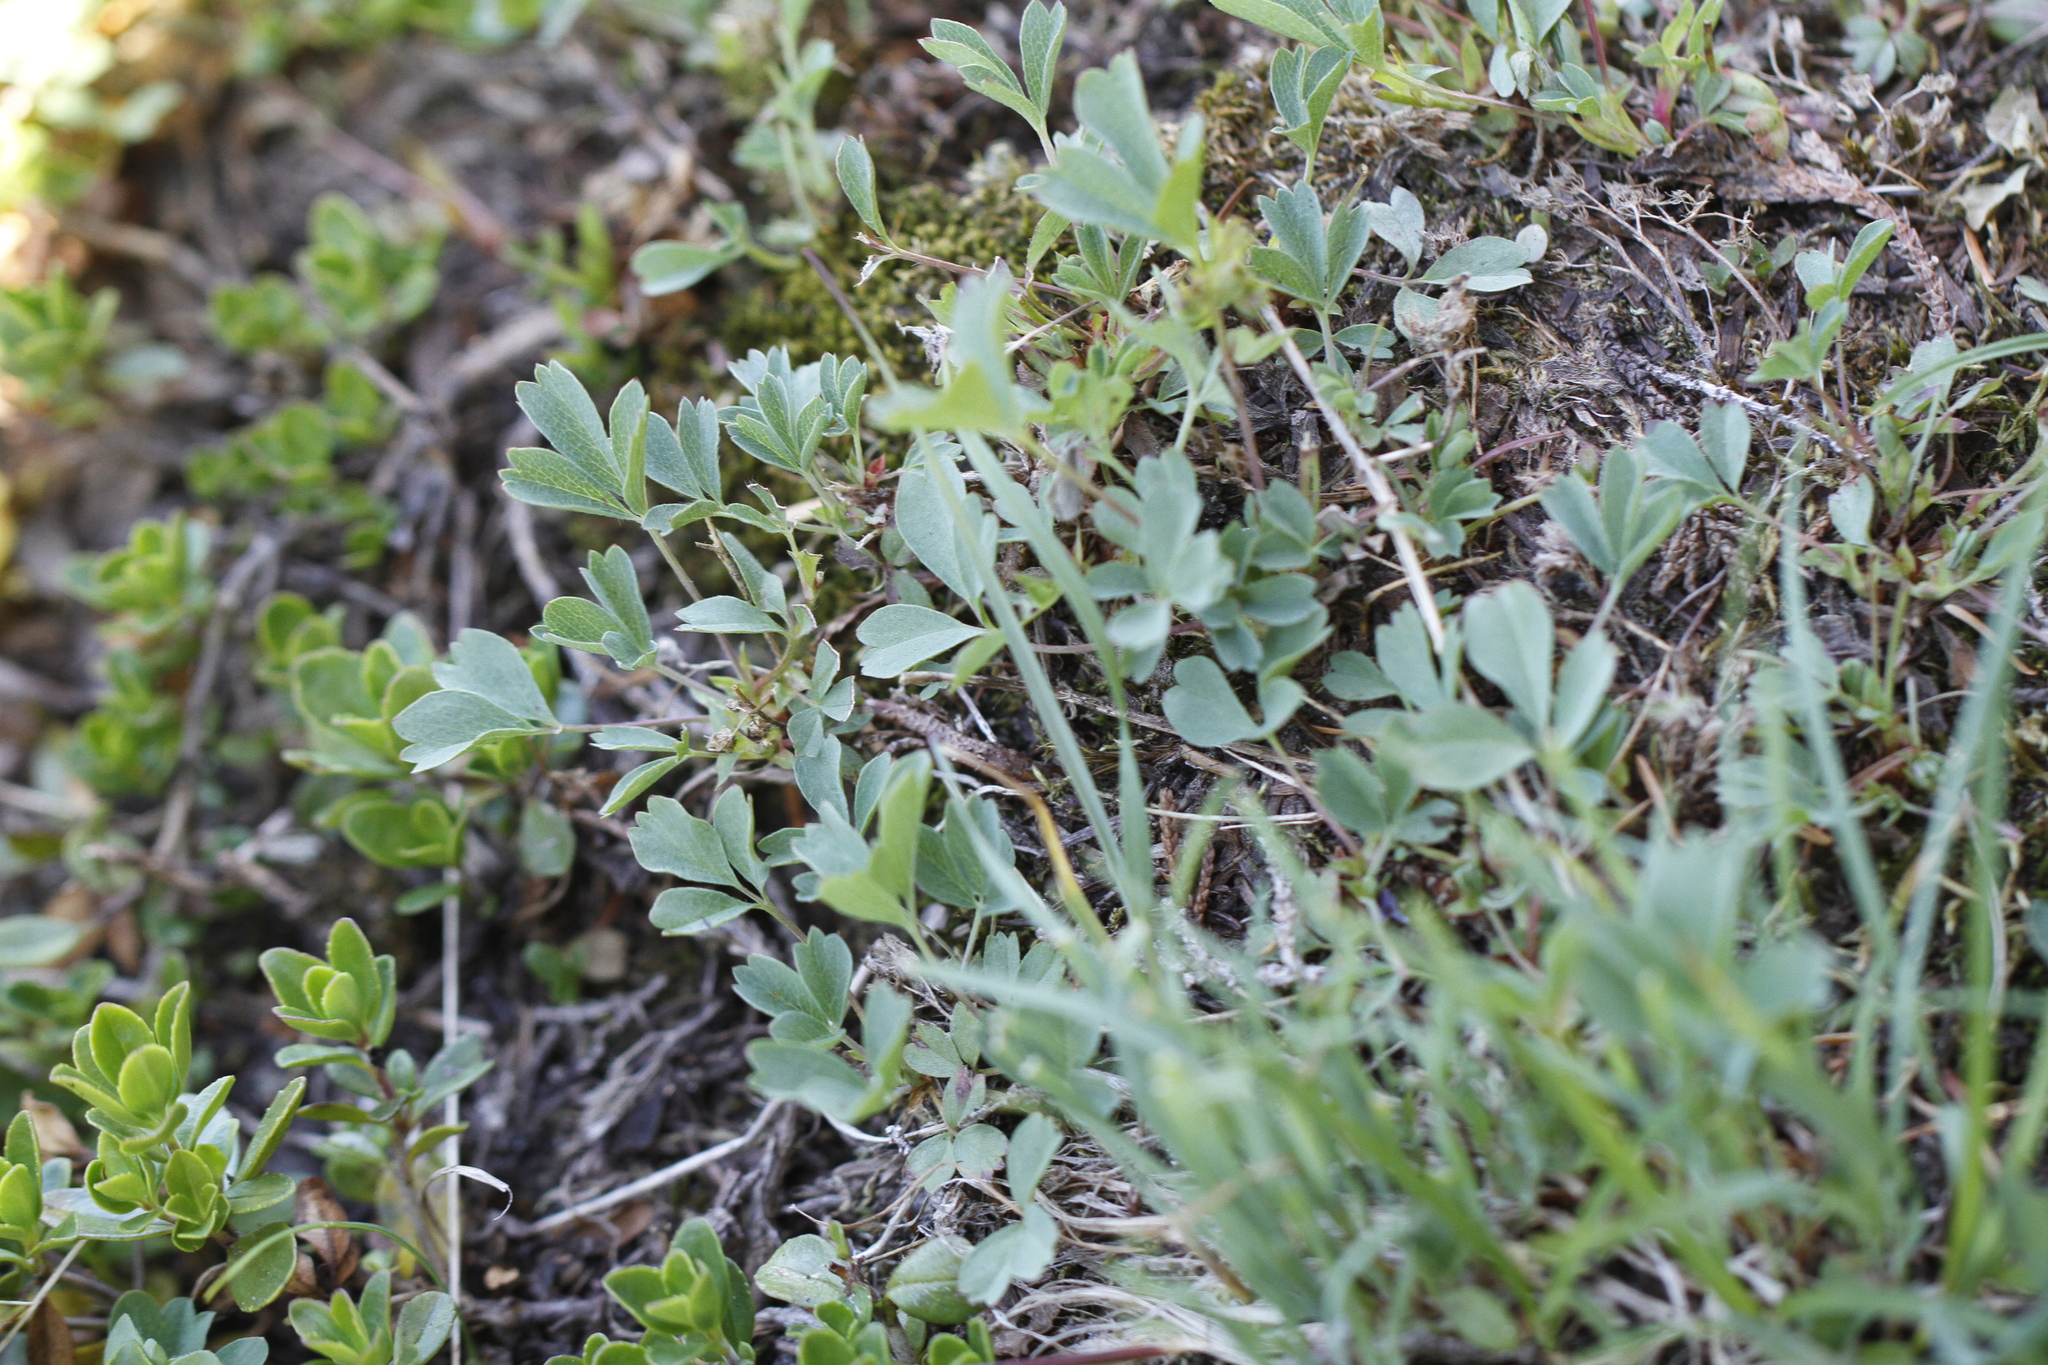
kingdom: Plantae
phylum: Tracheophyta
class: Magnoliopsida
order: Rosales
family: Rosaceae
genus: Sibbaldia
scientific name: Sibbaldia procumbens
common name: Creeping sibbaldia
